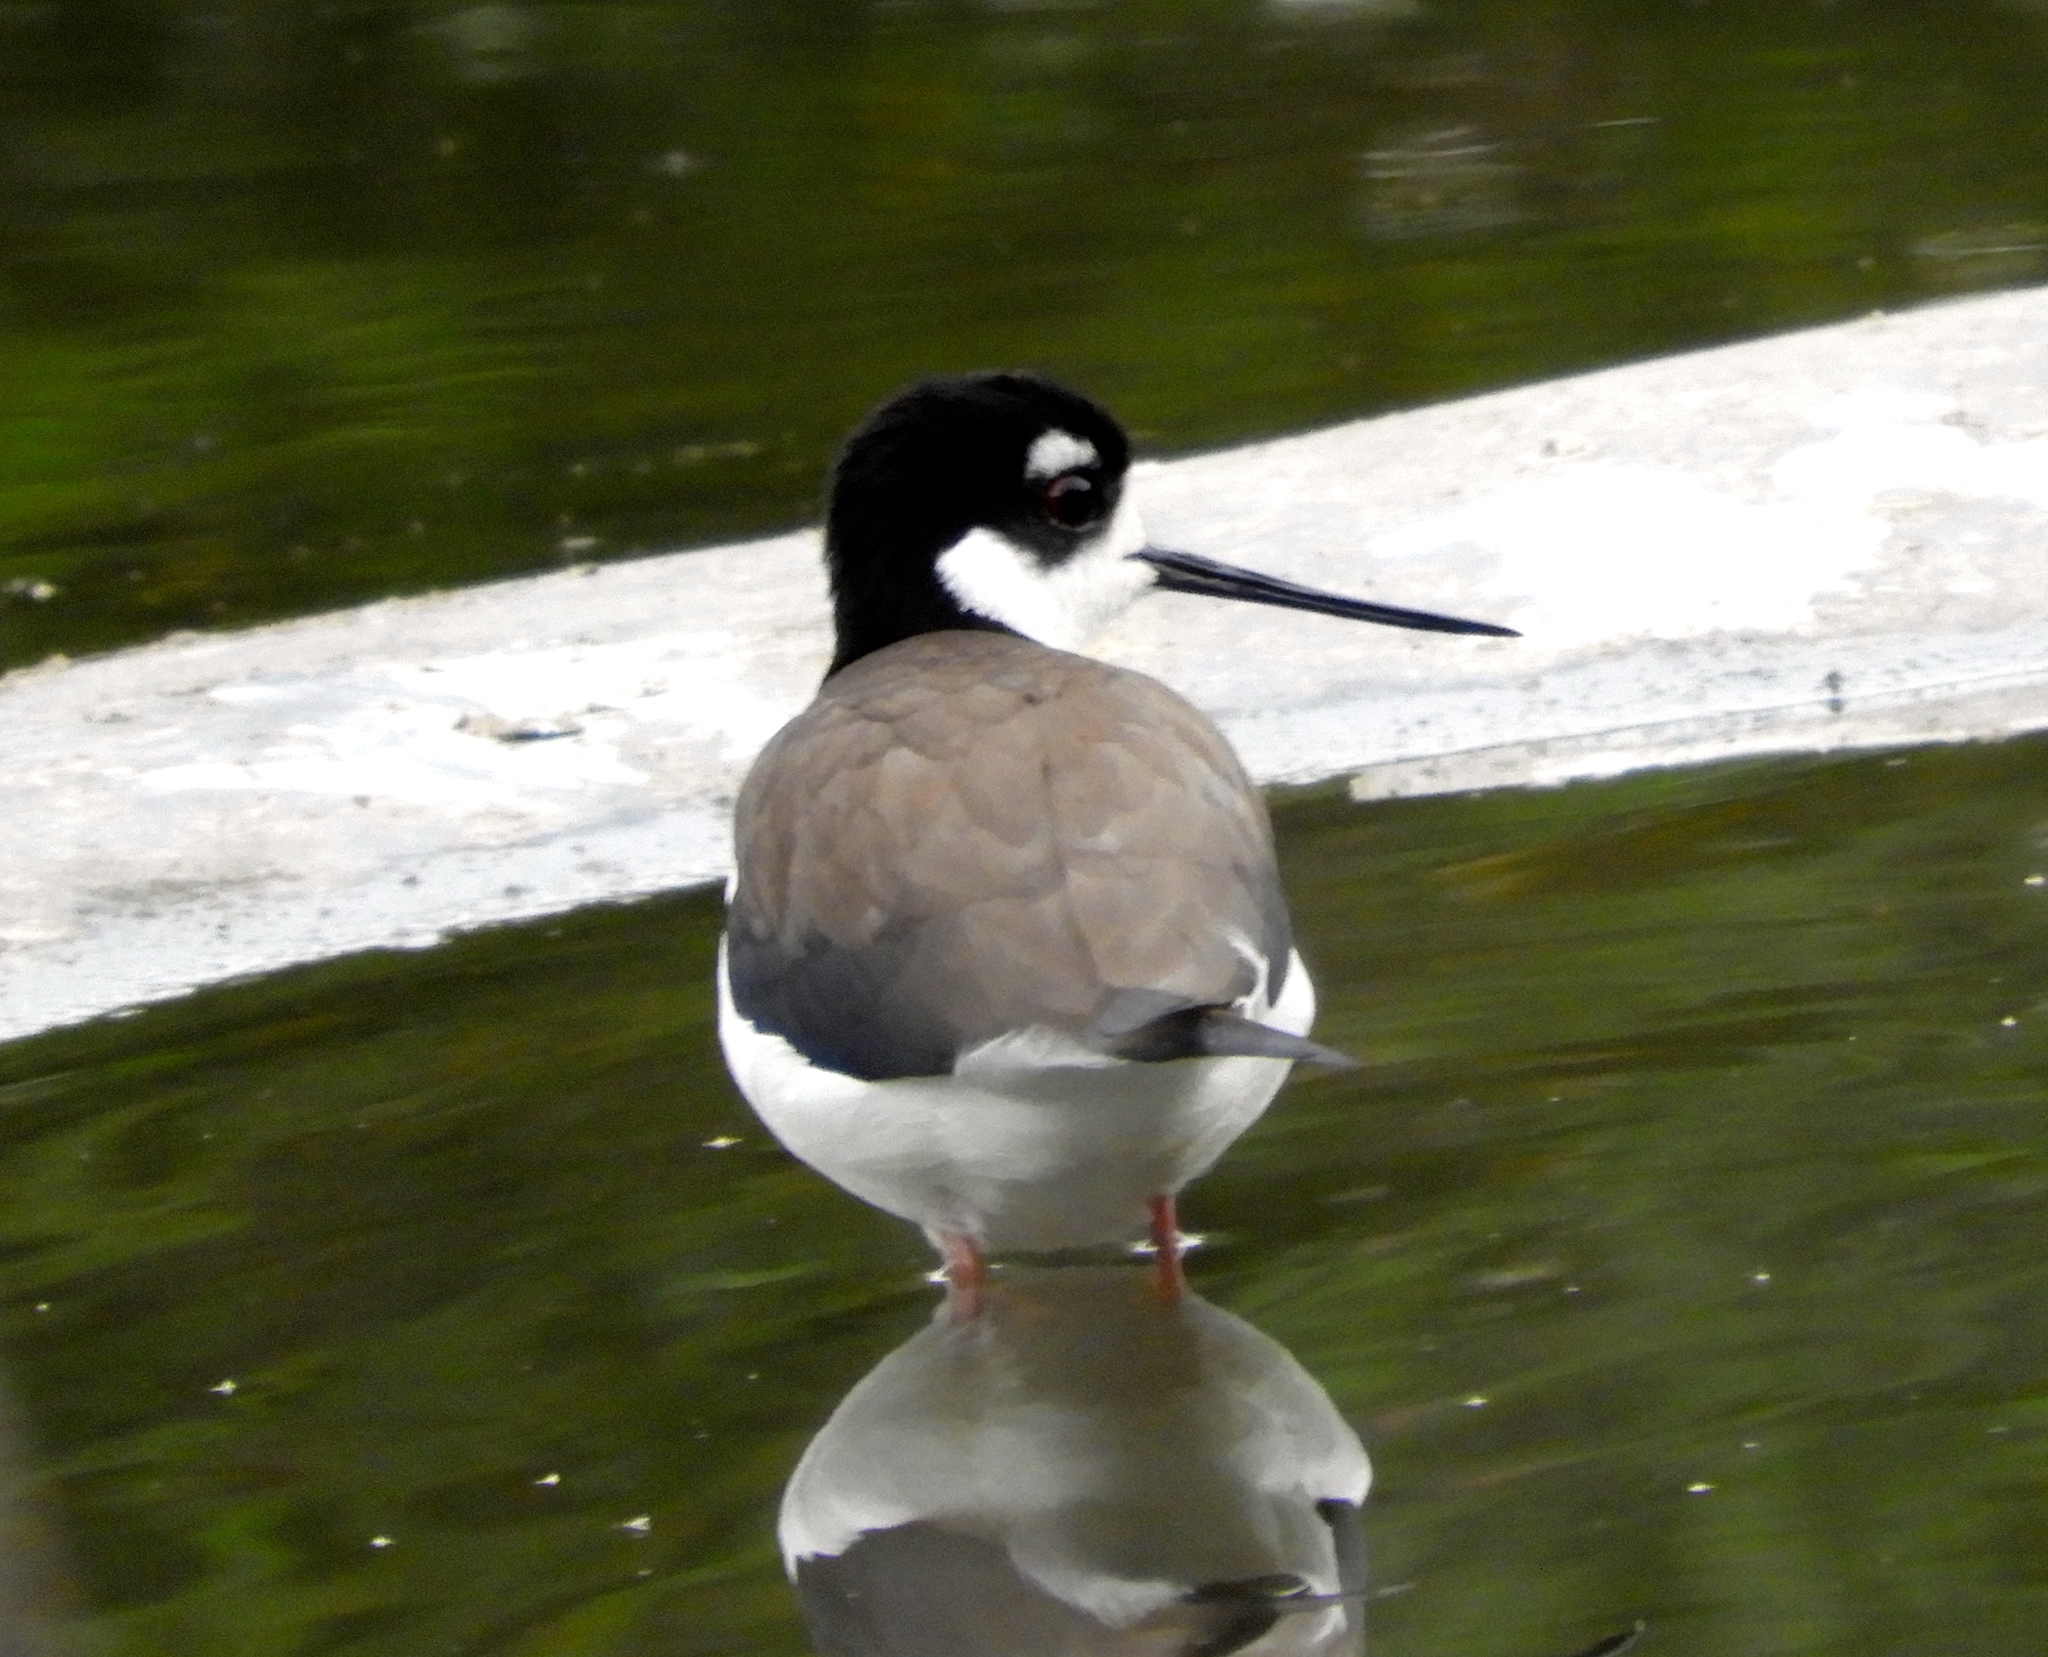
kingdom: Animalia
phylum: Chordata
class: Aves
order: Charadriiformes
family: Recurvirostridae
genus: Himantopus
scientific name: Himantopus mexicanus
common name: Black-necked stilt
